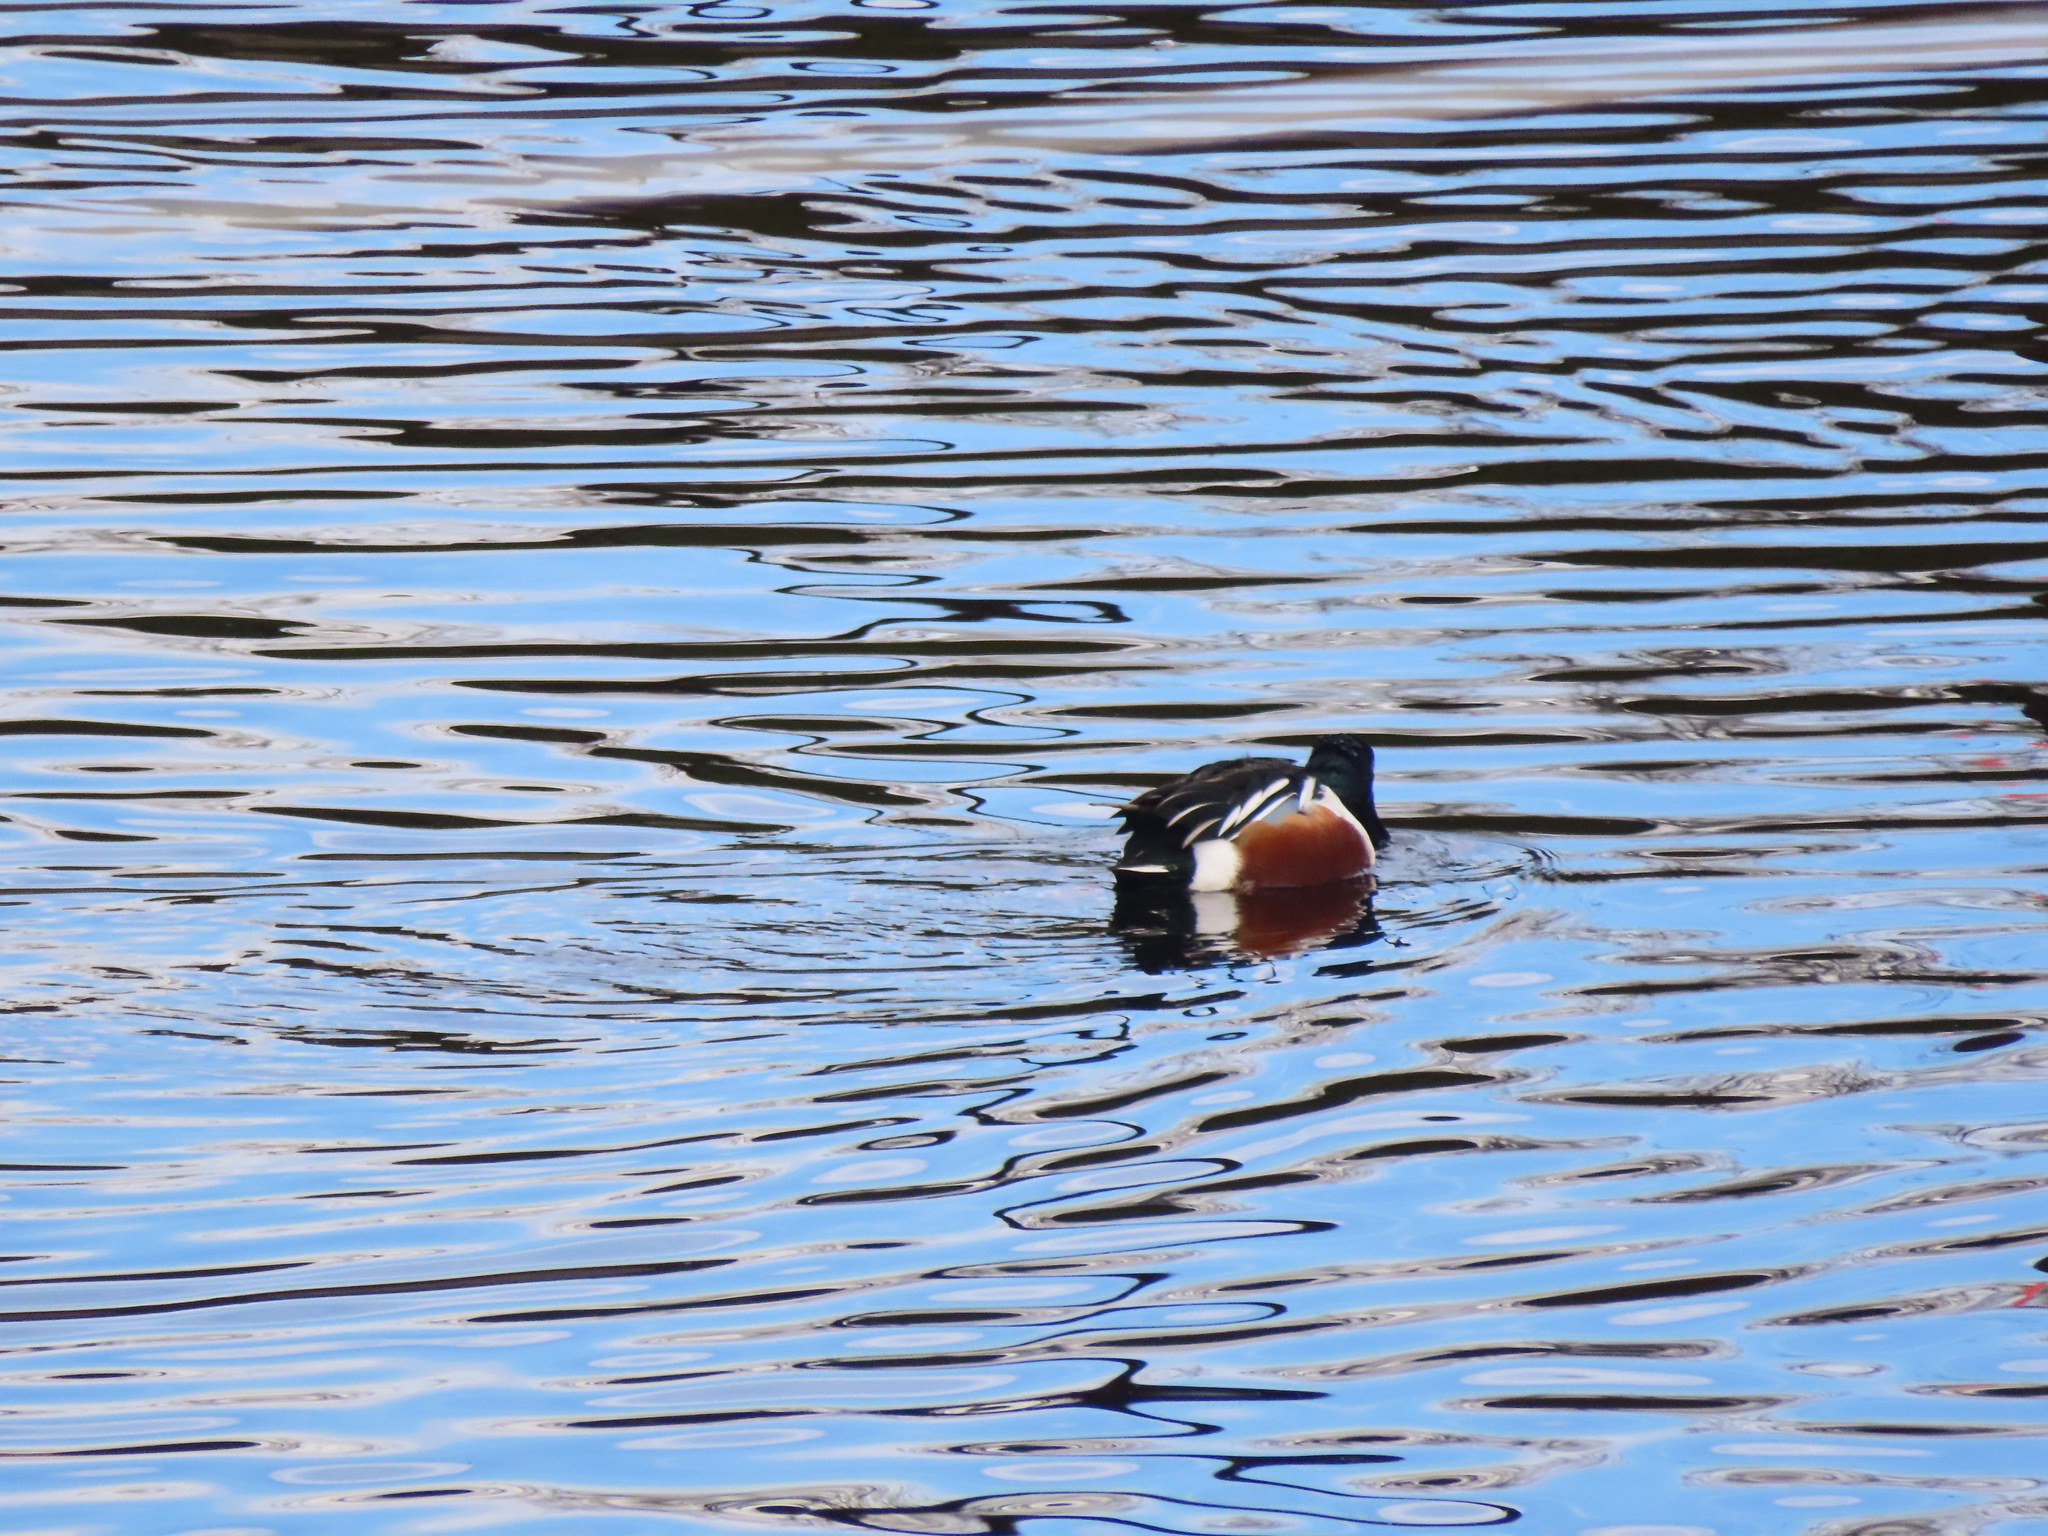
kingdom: Animalia
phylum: Chordata
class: Aves
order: Anseriformes
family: Anatidae
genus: Spatula
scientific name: Spatula clypeata
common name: Northern shoveler
